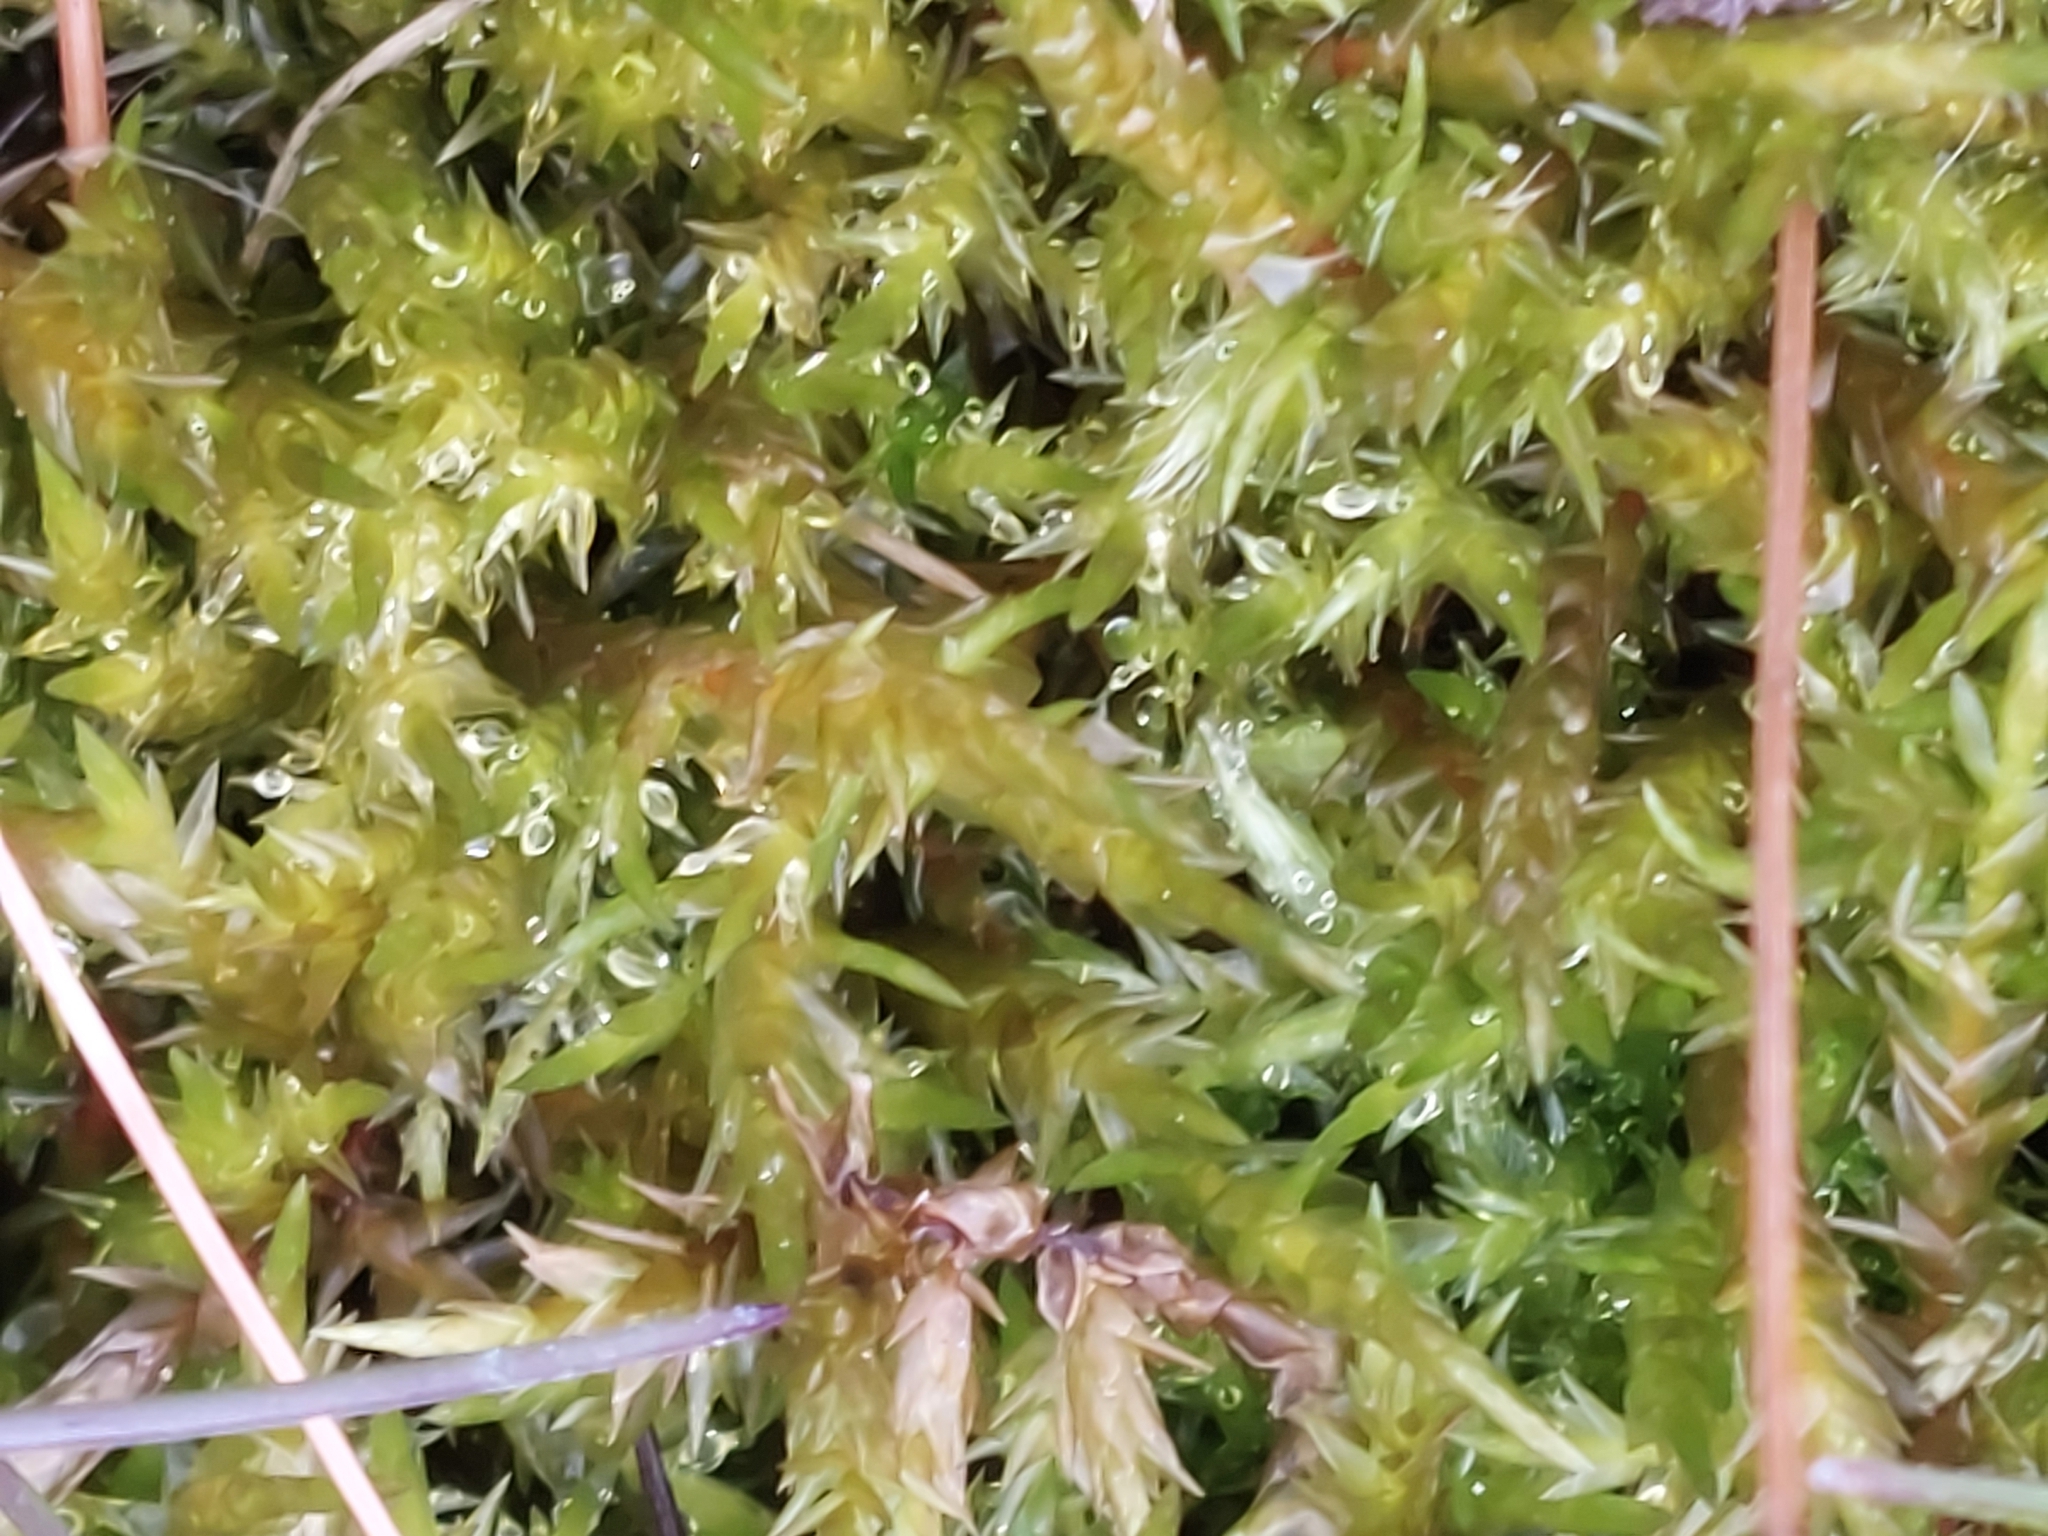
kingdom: Plantae
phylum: Bryophyta
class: Bryopsida
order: Hypnales
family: Pylaisiaceae
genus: Calliergonella
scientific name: Calliergonella cuspidata
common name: Common large wetland moss
